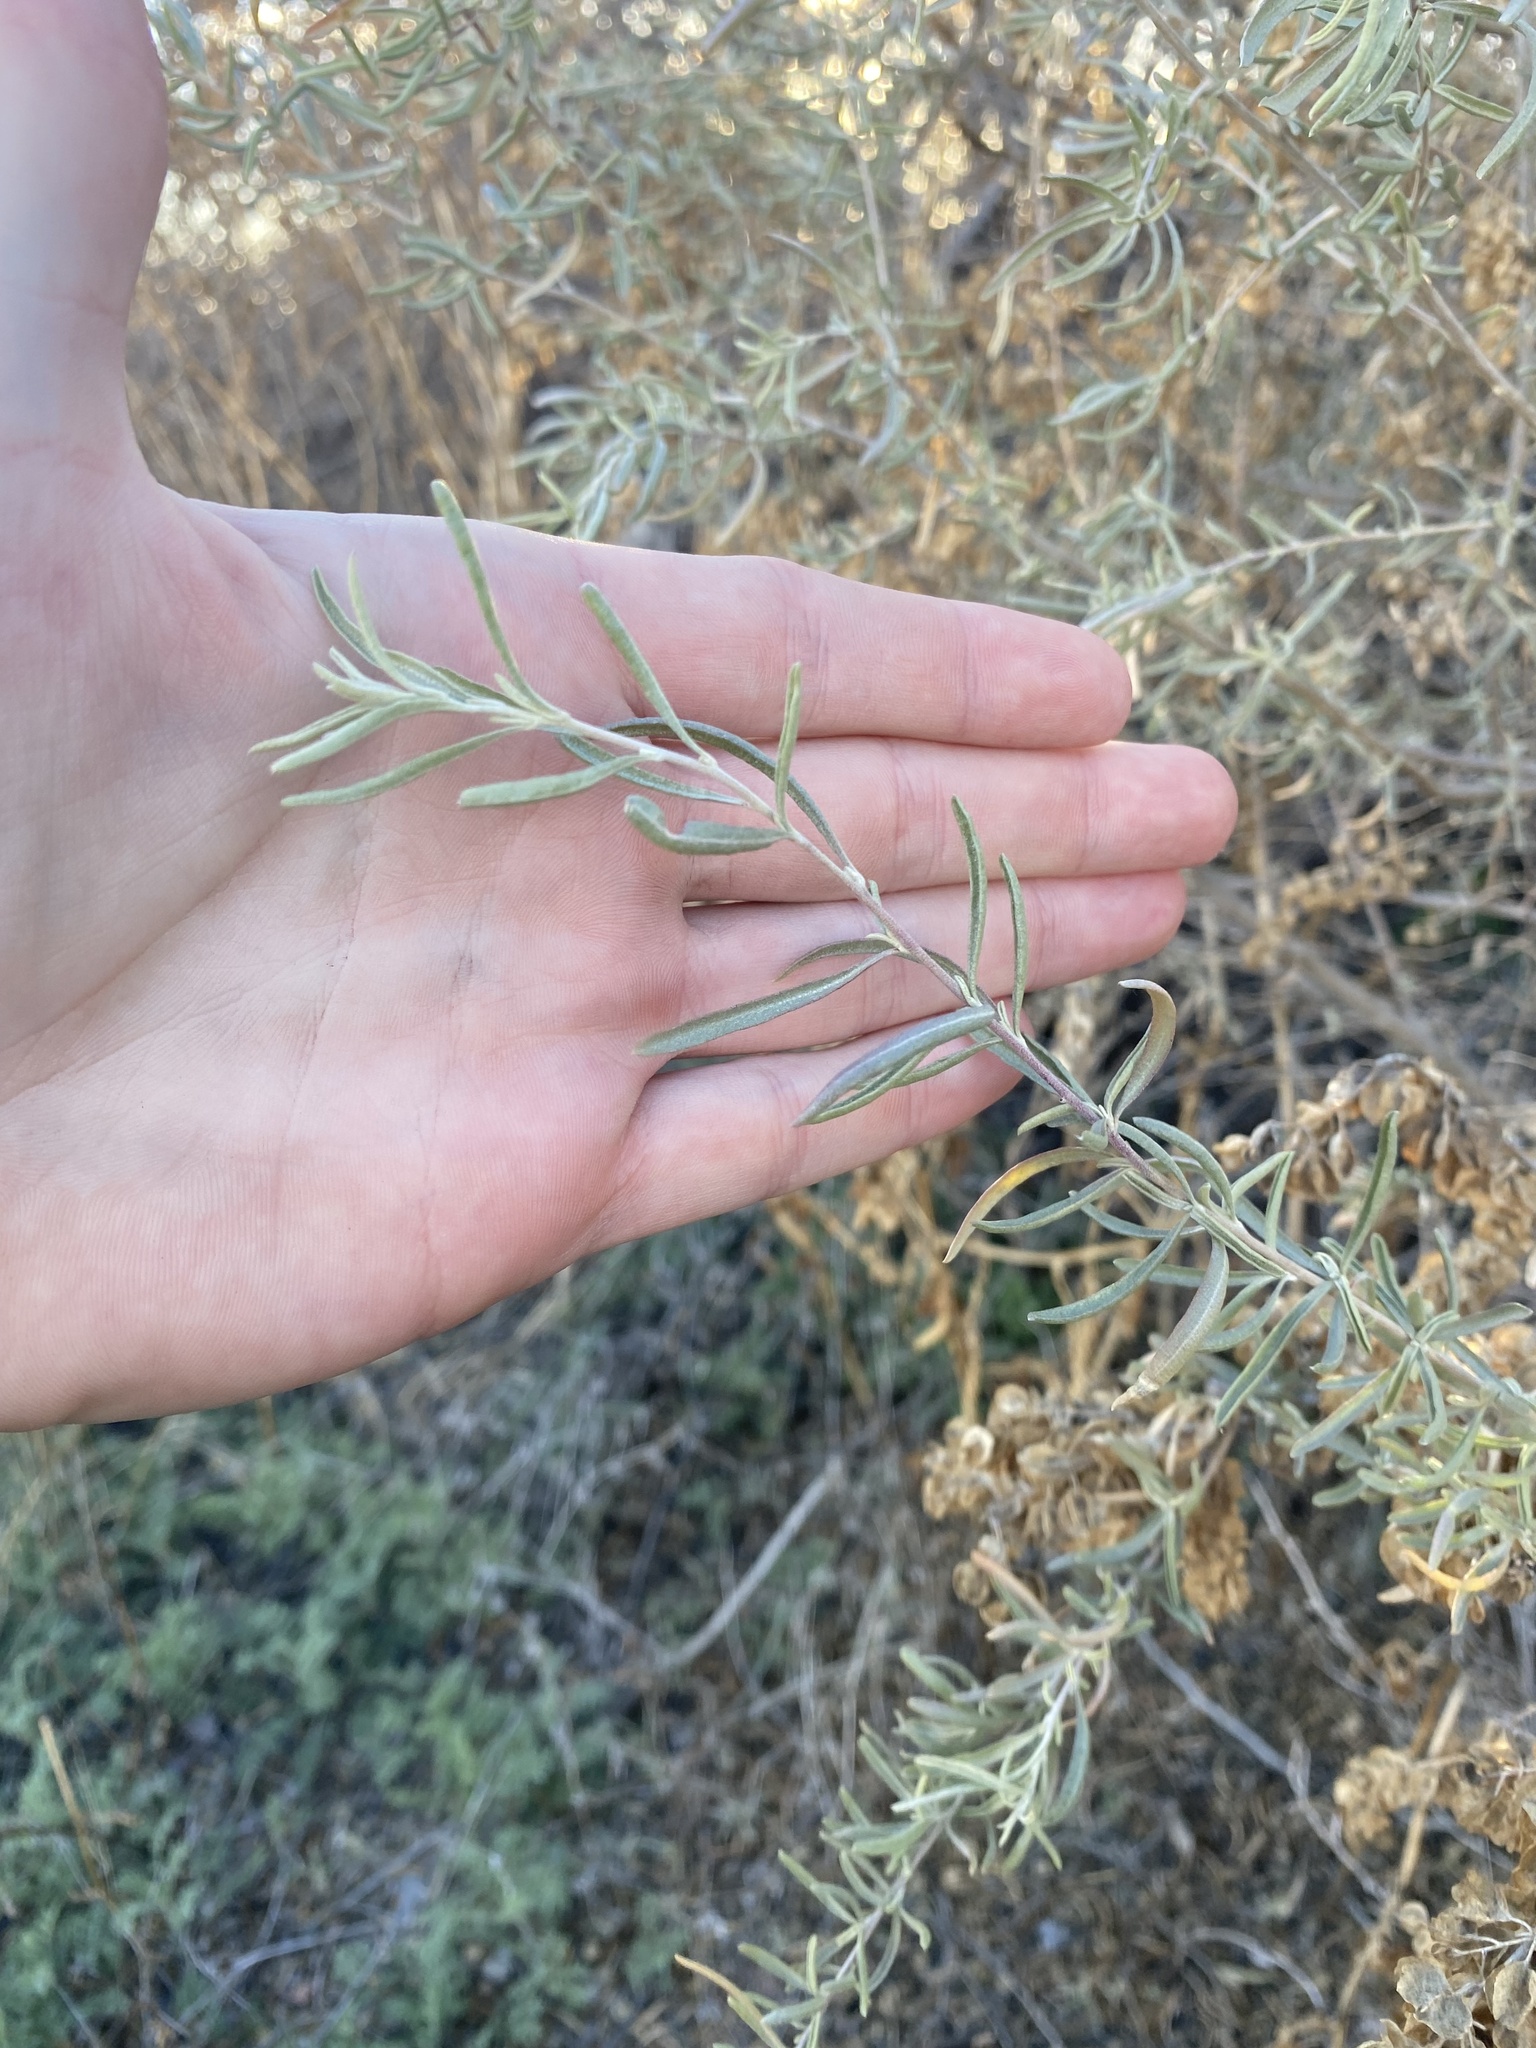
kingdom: Plantae
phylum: Tracheophyta
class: Magnoliopsida
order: Caryophyllales
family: Amaranthaceae
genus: Atriplex
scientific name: Atriplex canescens
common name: Four-wing saltbush
